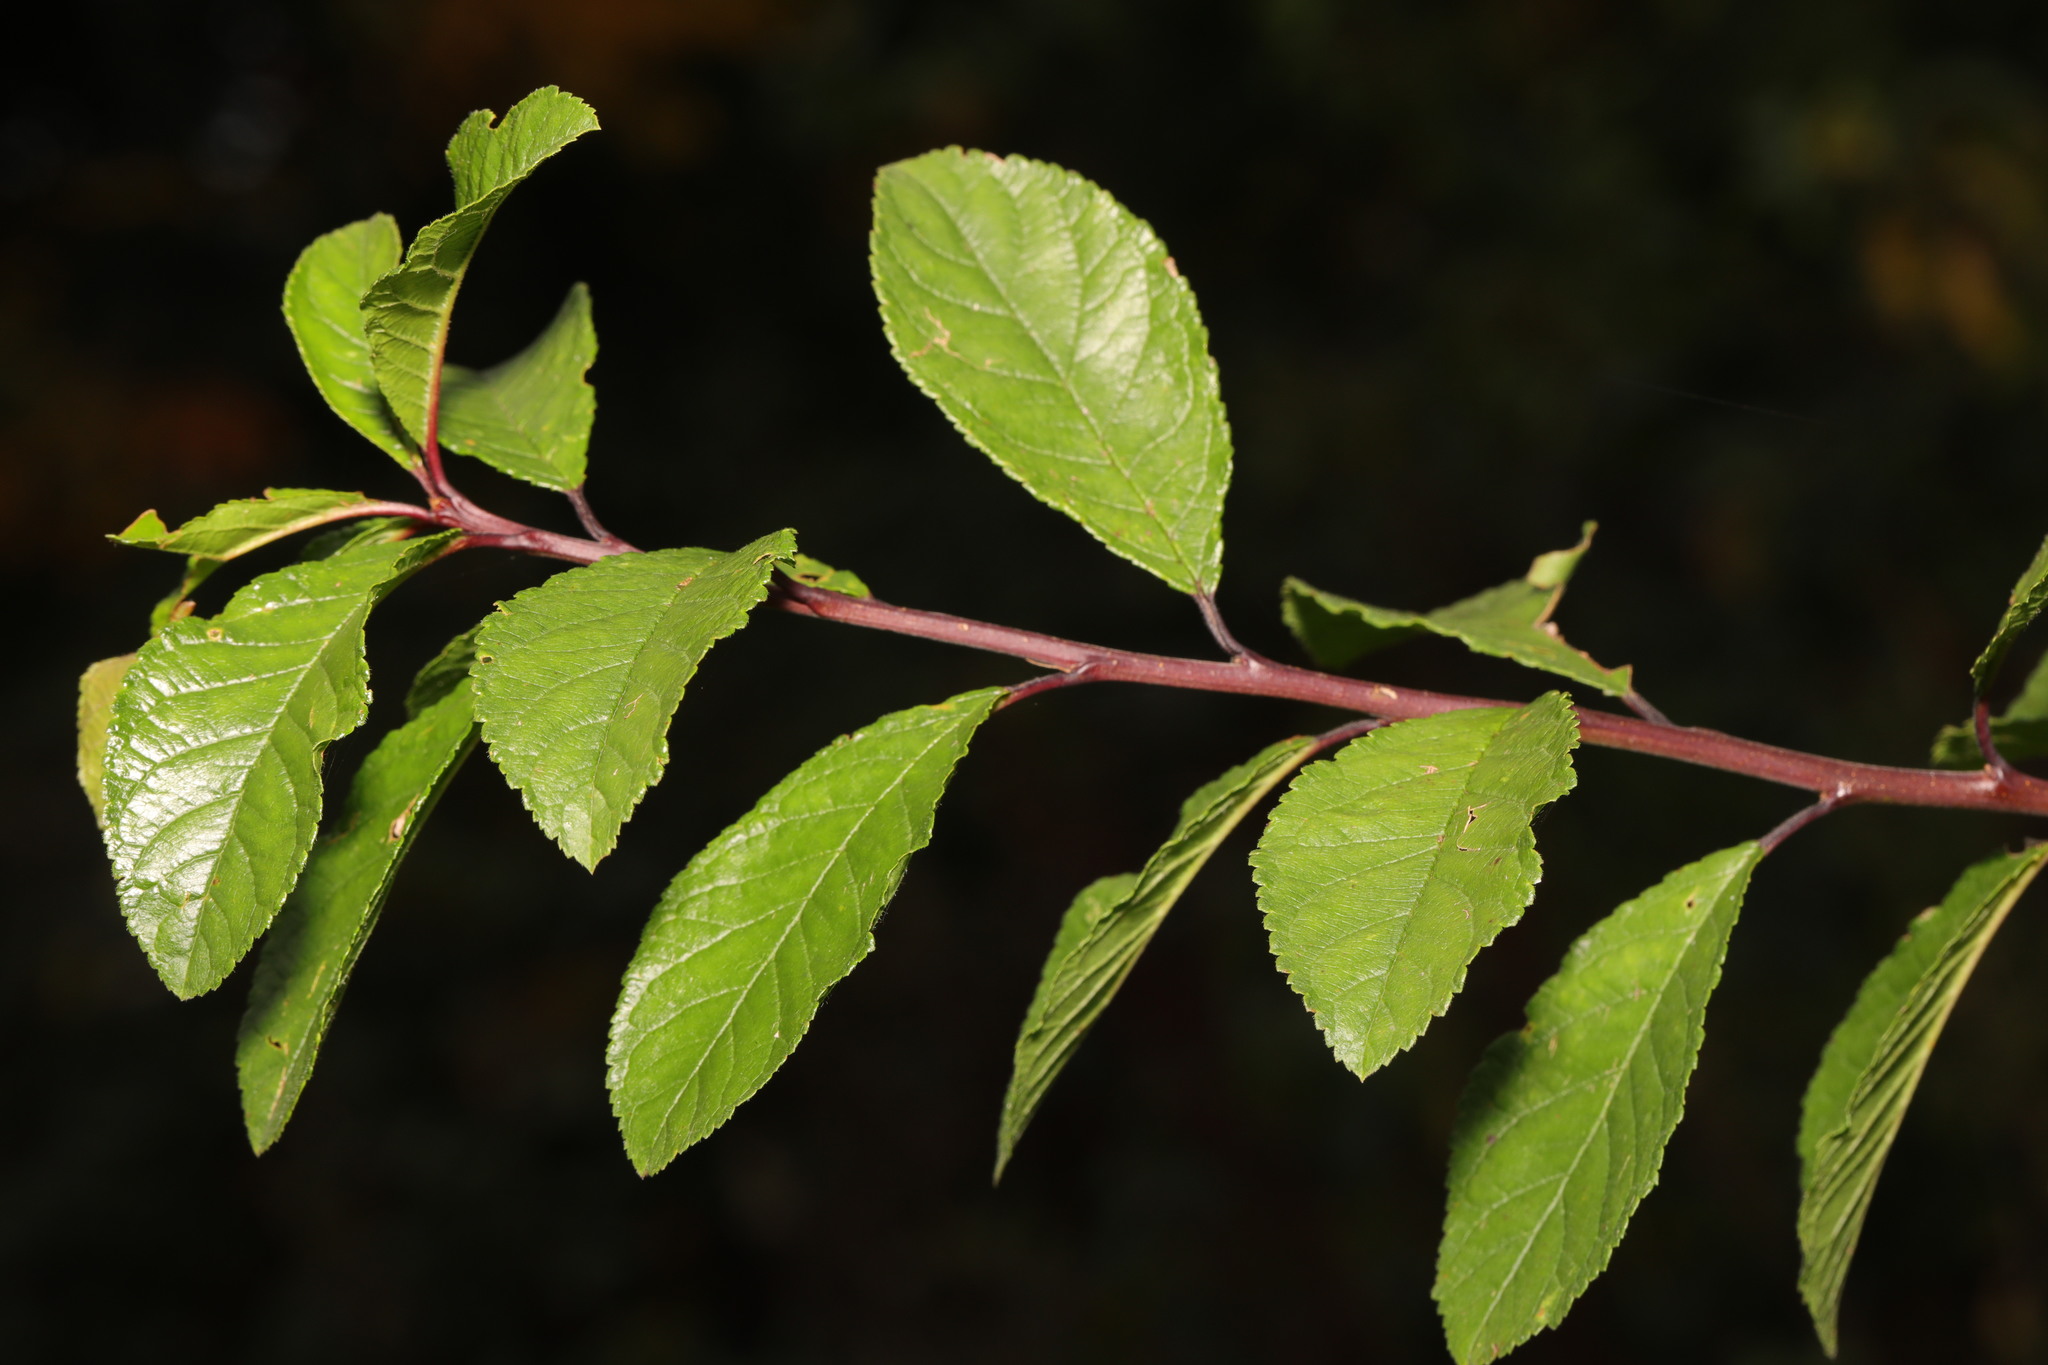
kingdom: Plantae
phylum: Tracheophyta
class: Magnoliopsida
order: Rosales
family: Rosaceae
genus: Prunus
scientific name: Prunus spinosa
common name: Blackthorn
